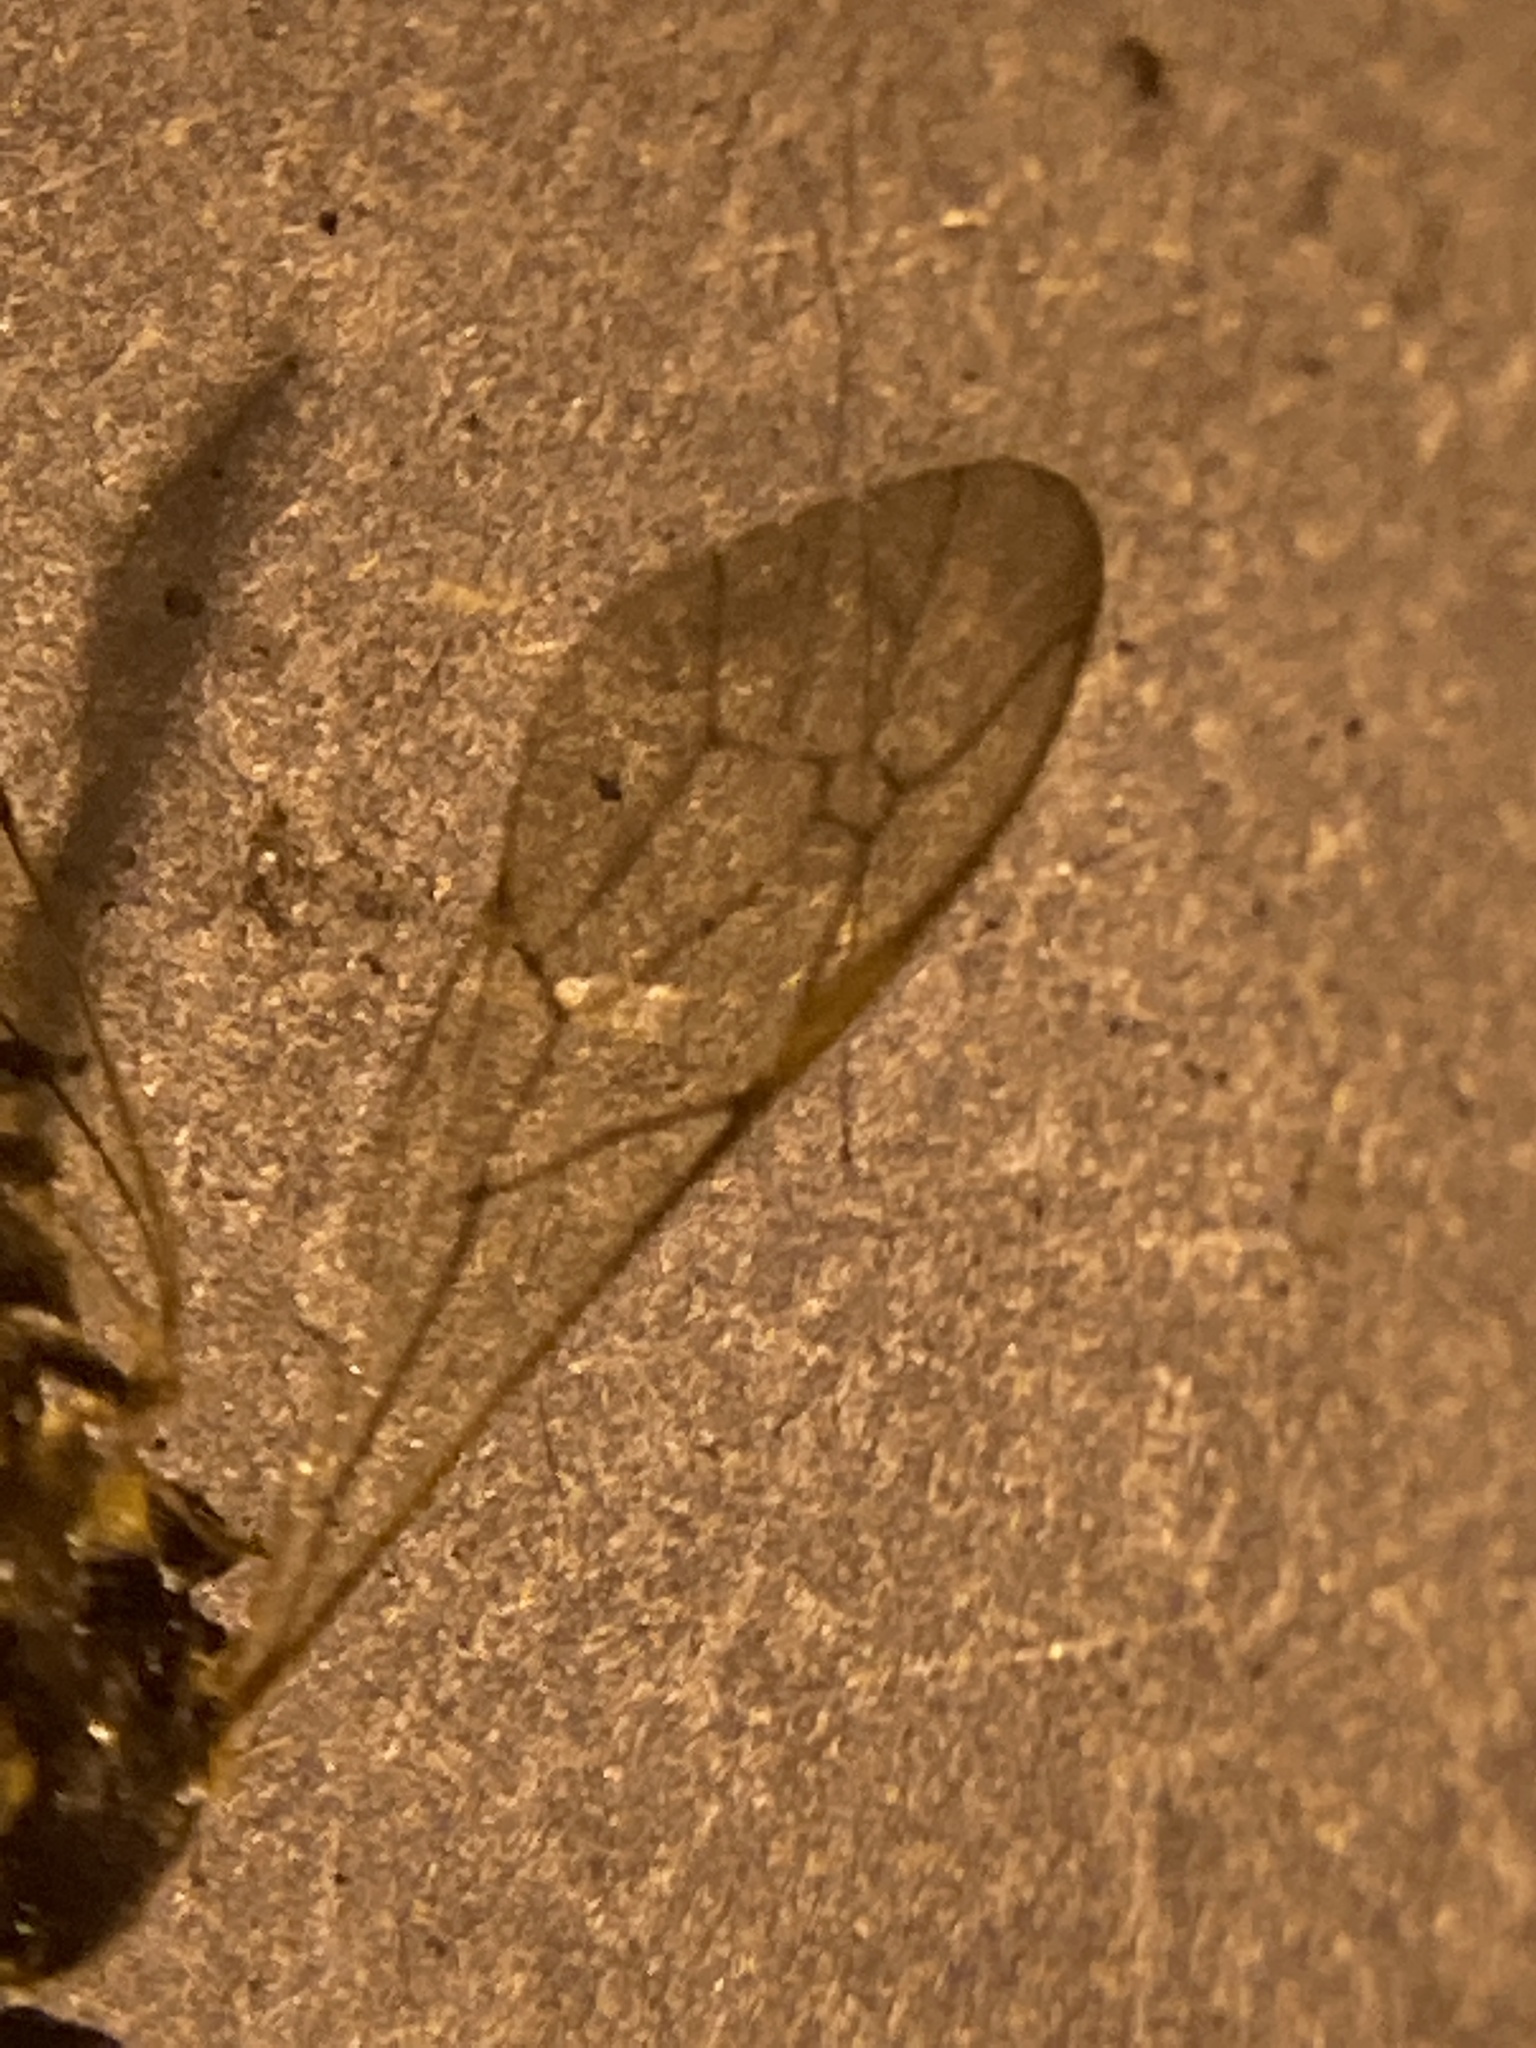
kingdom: Animalia
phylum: Arthropoda
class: Insecta
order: Hymenoptera
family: Ichneumonidae
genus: Acroricnus
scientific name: Acroricnus stylator
